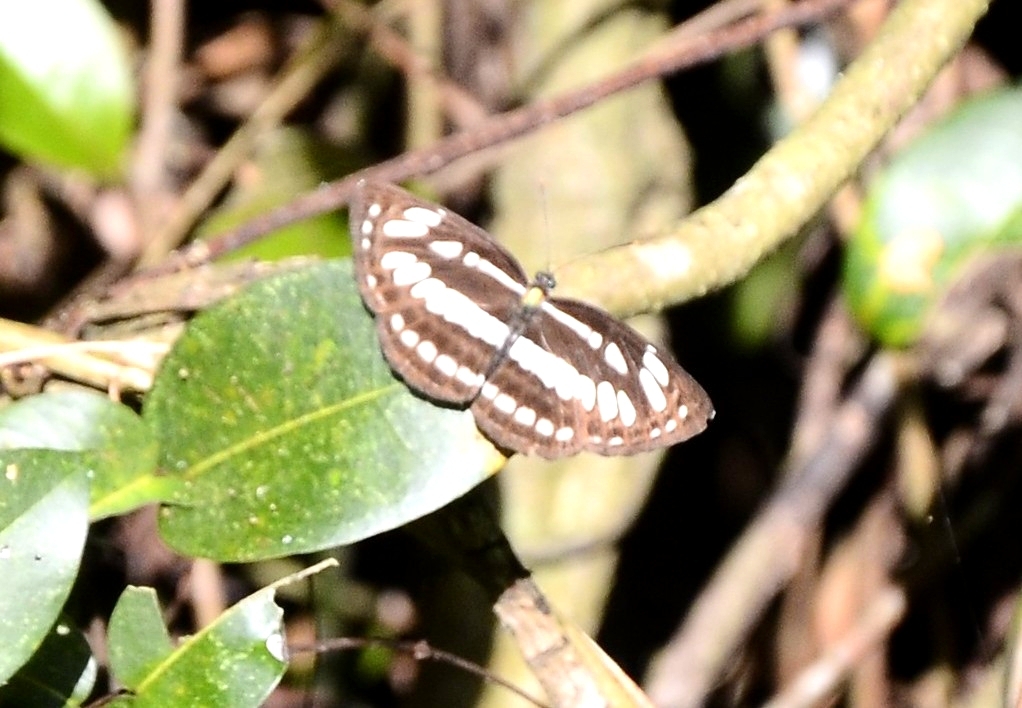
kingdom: Animalia
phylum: Arthropoda
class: Insecta
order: Lepidoptera
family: Nymphalidae
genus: Neptis
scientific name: Neptis hylas
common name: Common sailer
